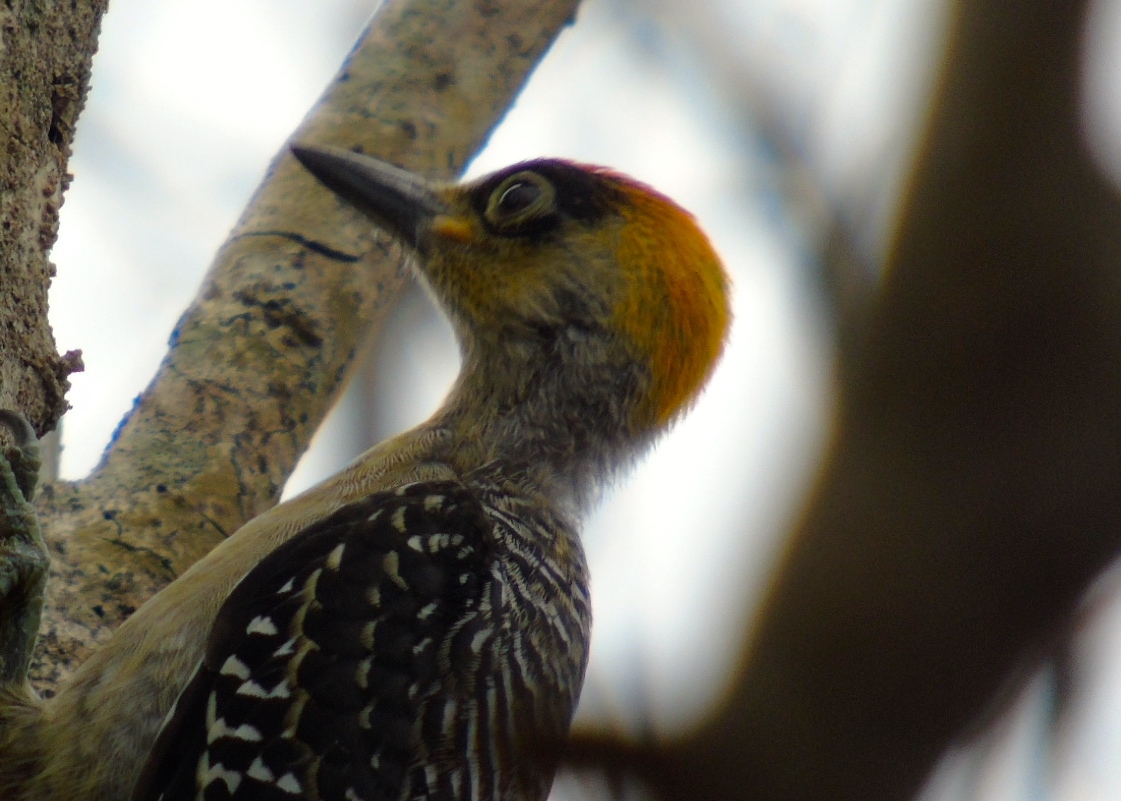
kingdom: Animalia
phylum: Chordata
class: Aves
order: Piciformes
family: Picidae
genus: Melanerpes
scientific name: Melanerpes chrysogenys
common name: Golden-cheeked woodpecker
